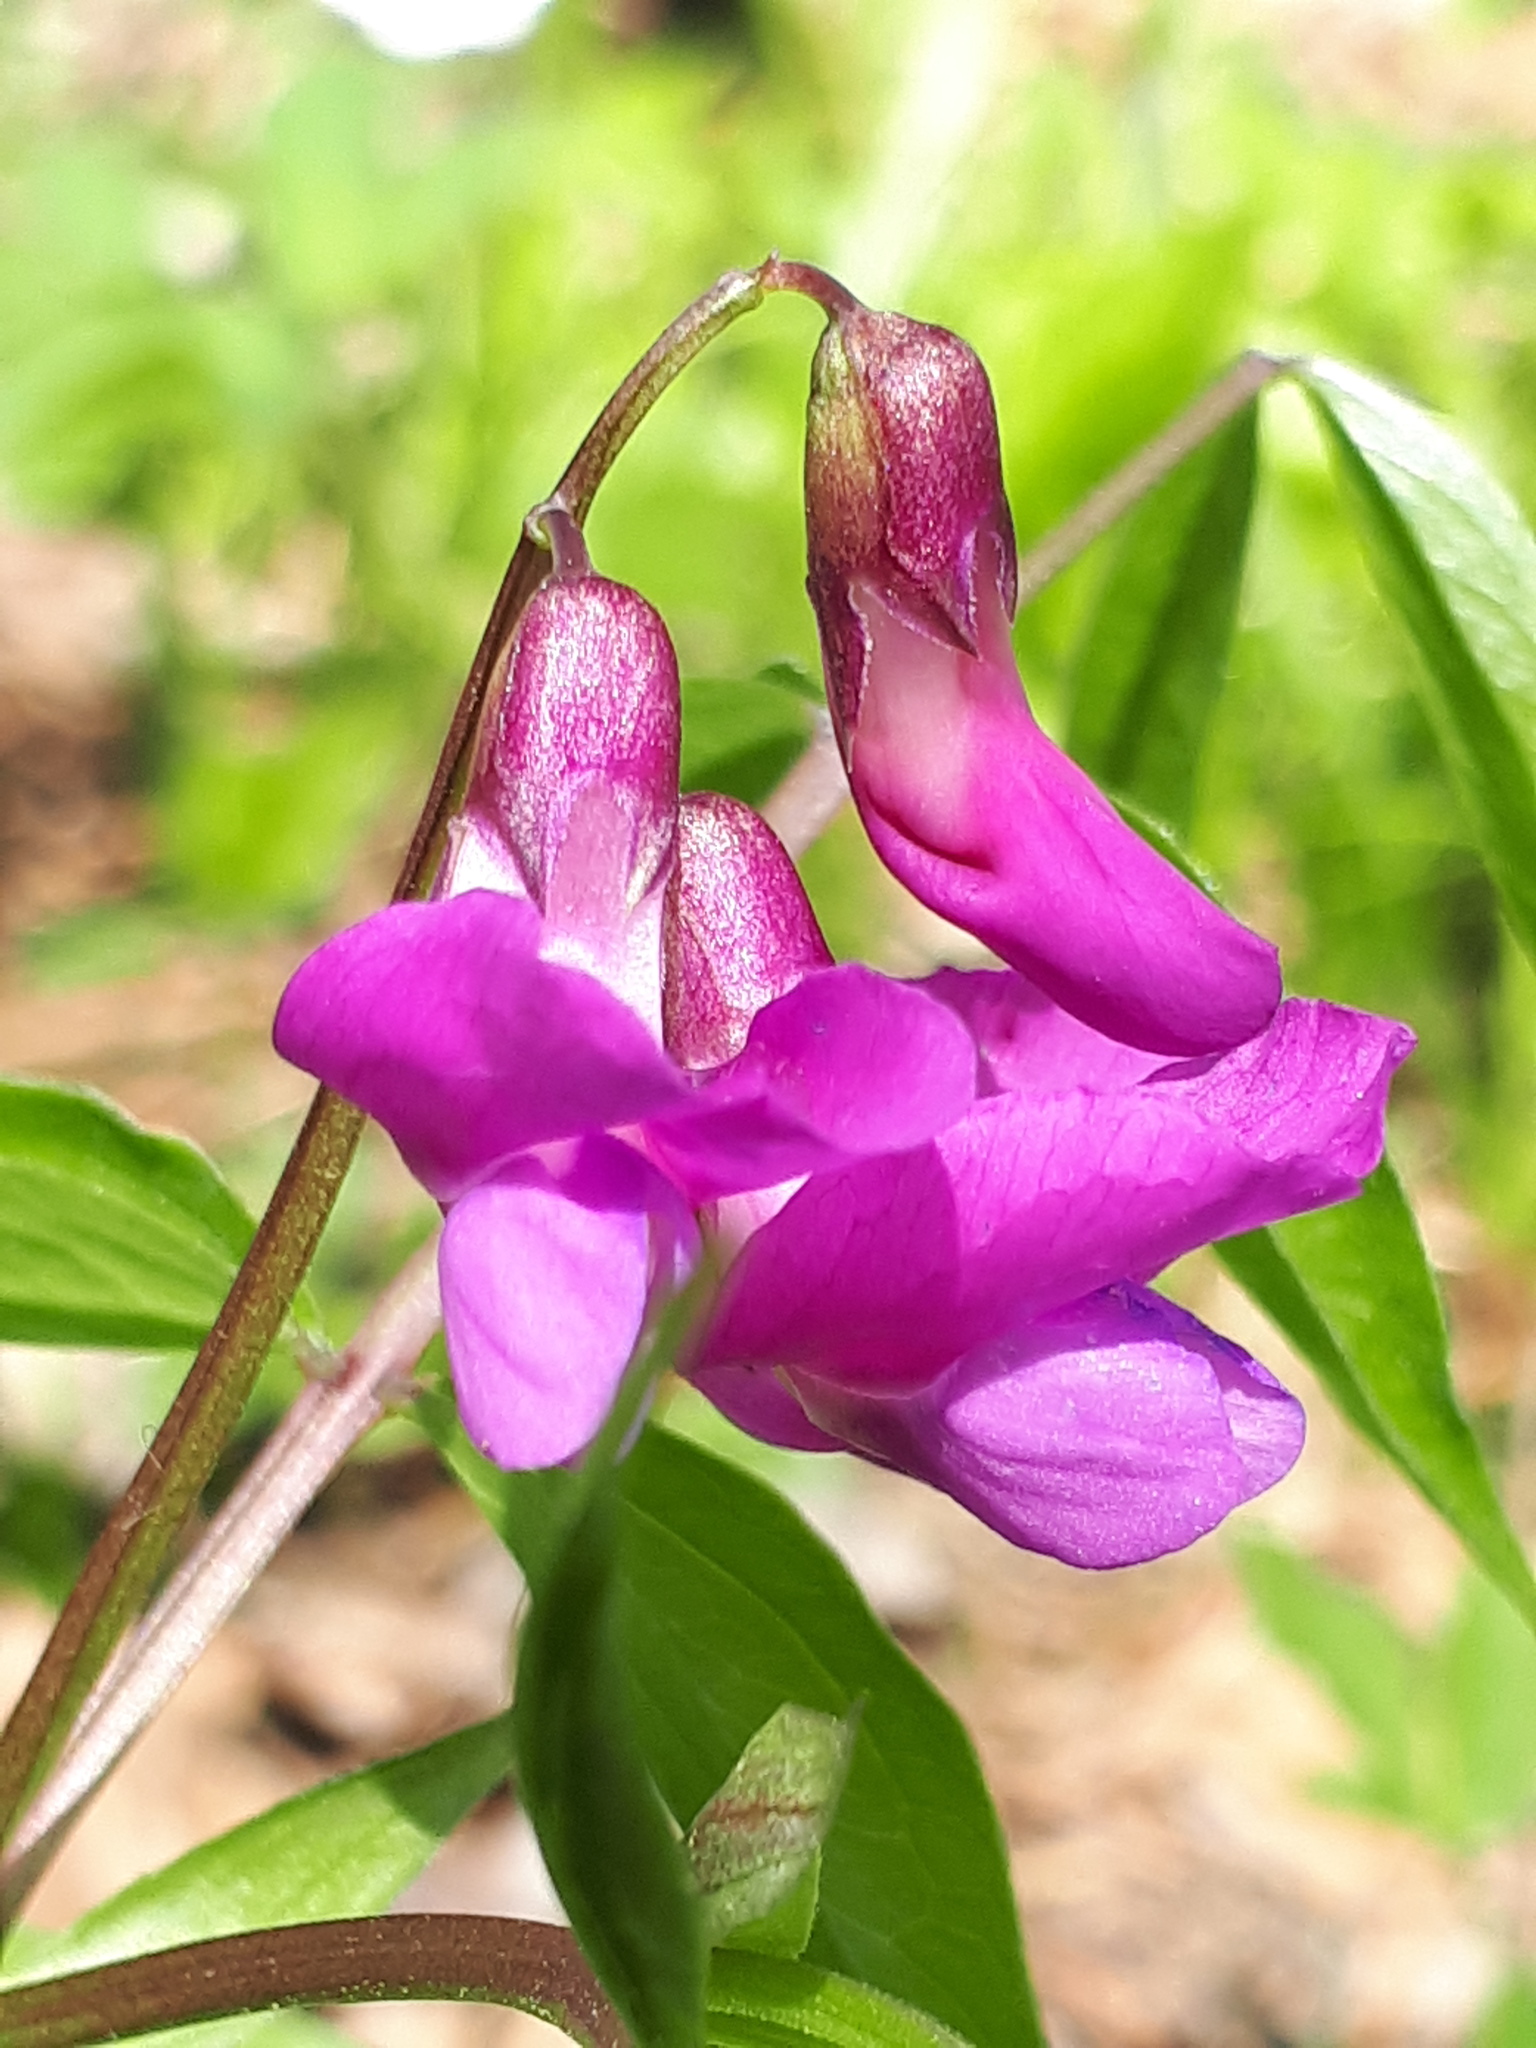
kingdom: Plantae
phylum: Tracheophyta
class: Magnoliopsida
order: Fabales
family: Fabaceae
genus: Lathyrus
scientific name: Lathyrus vernus
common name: Spring pea
